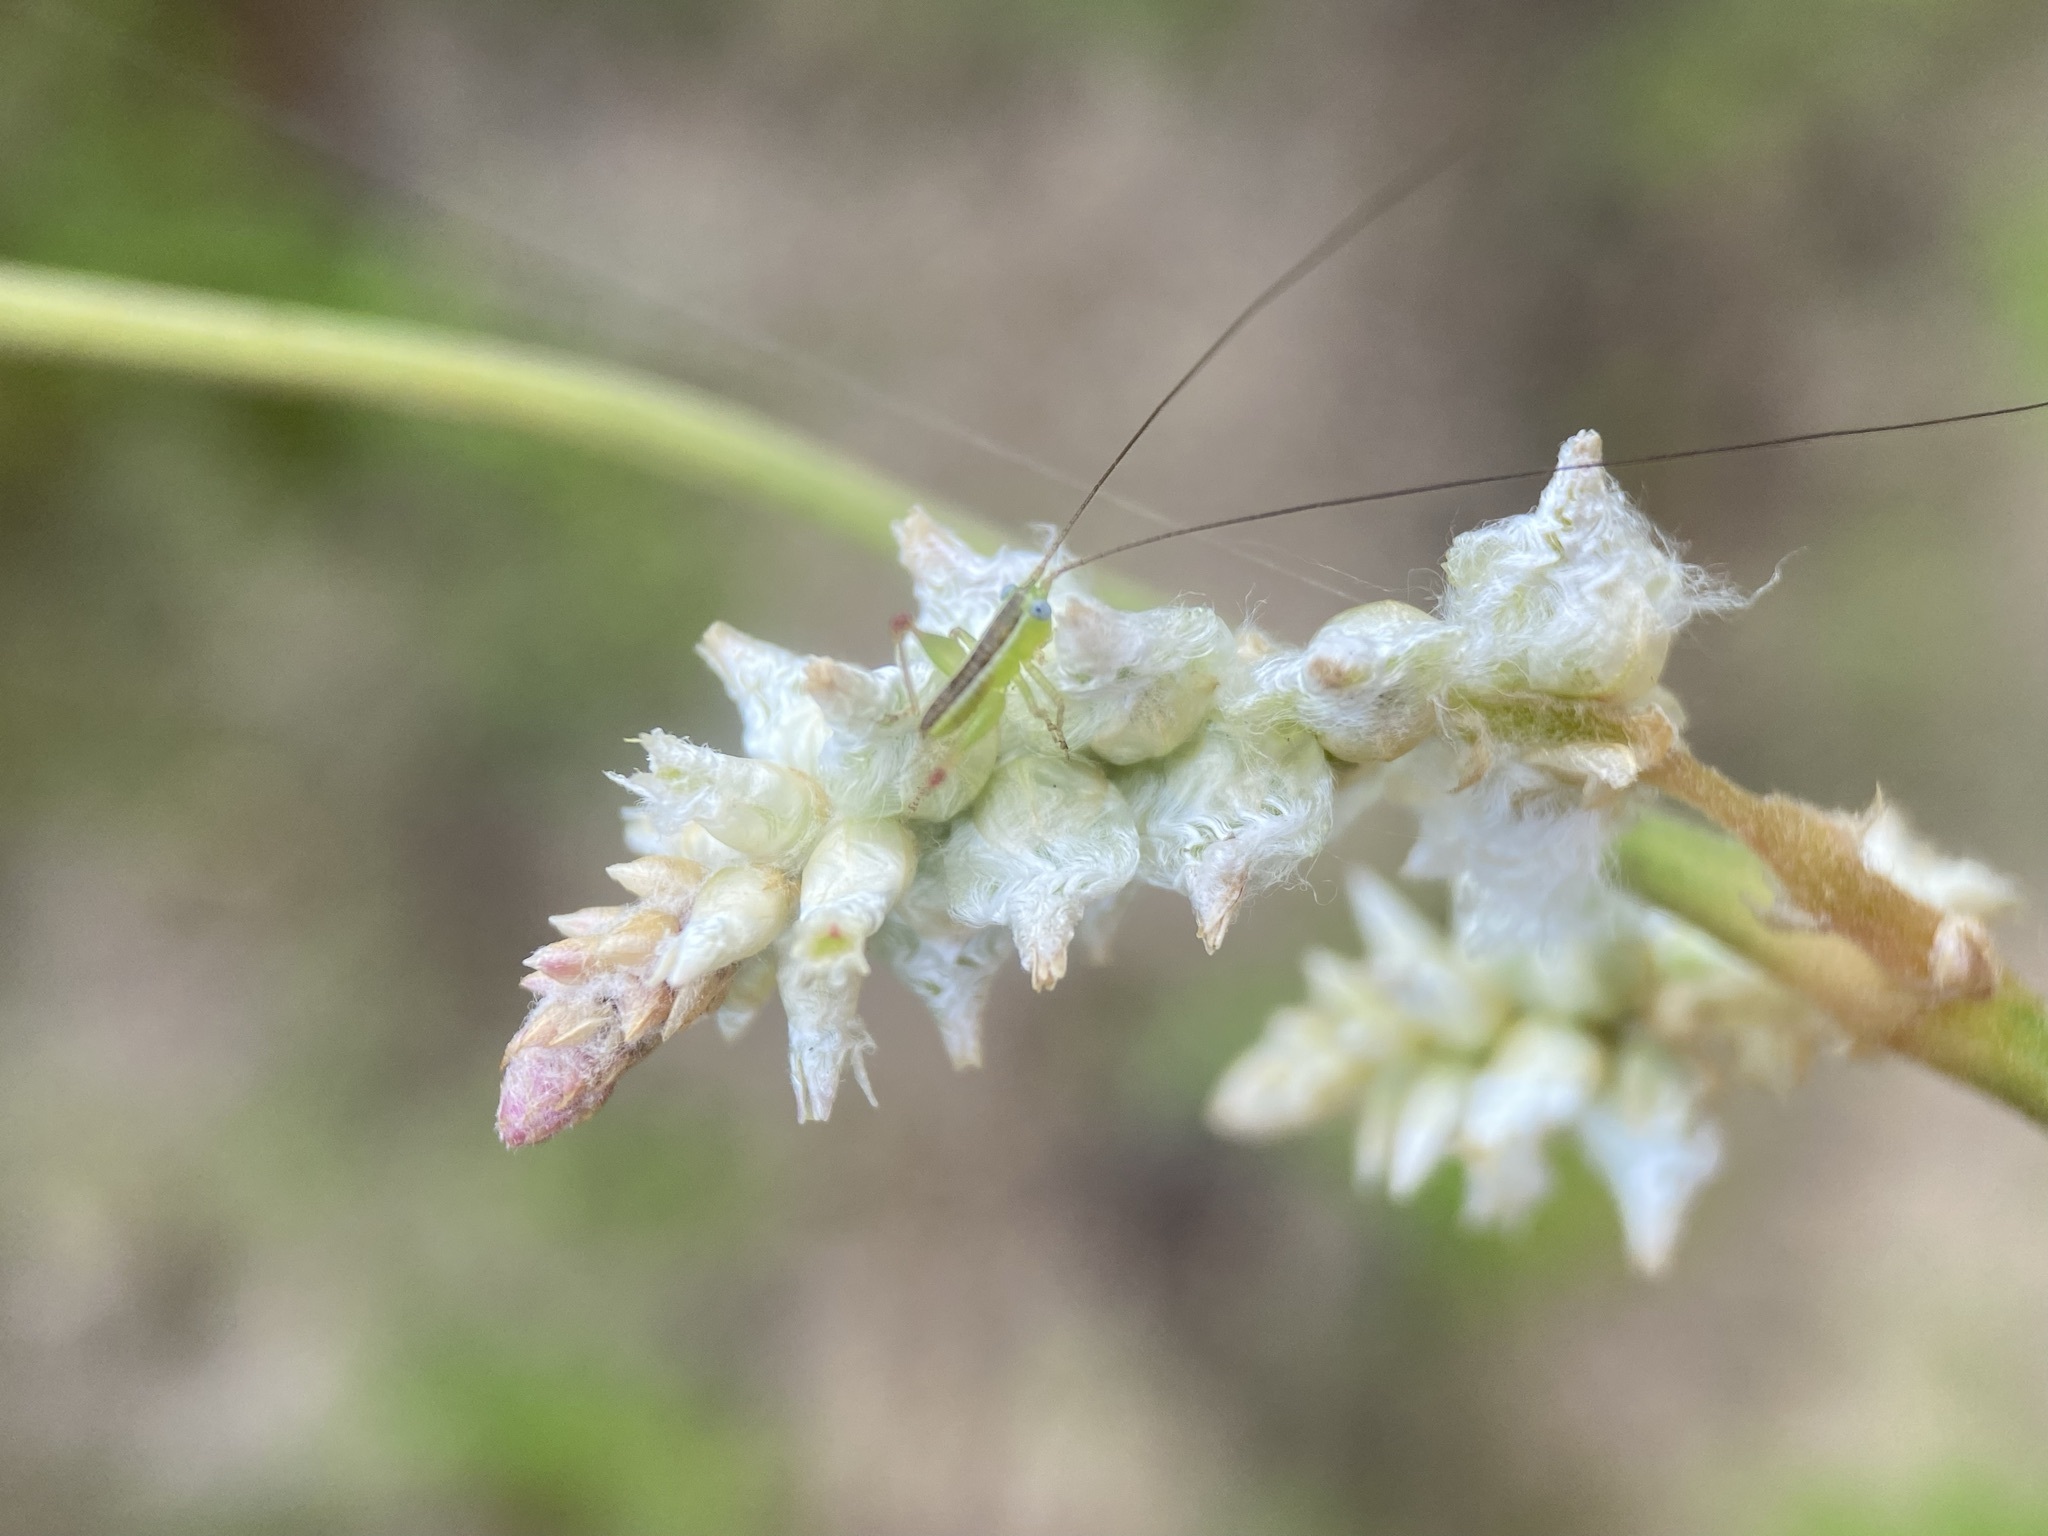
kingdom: Plantae
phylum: Tracheophyta
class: Magnoliopsida
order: Caryophyllales
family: Amaranthaceae
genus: Froelichia
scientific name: Froelichia floridana
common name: Florida snake-cotton
